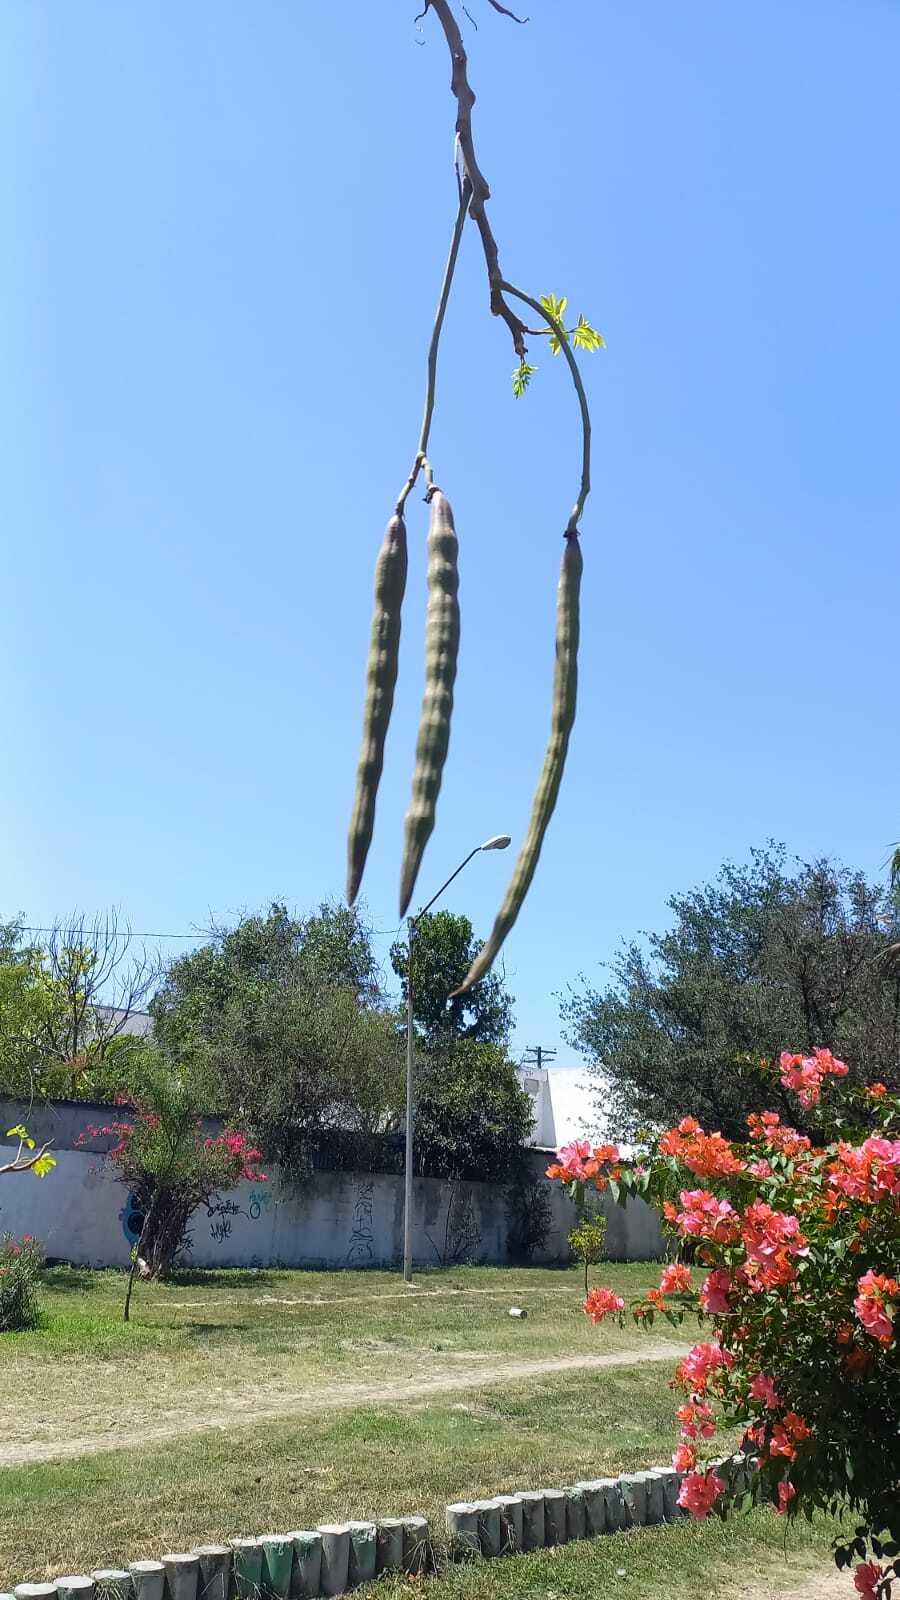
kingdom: Plantae
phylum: Tracheophyta
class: Magnoliopsida
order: Brassicales
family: Moringaceae
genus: Moringa
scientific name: Moringa oleifera
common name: Horseradish-tree
